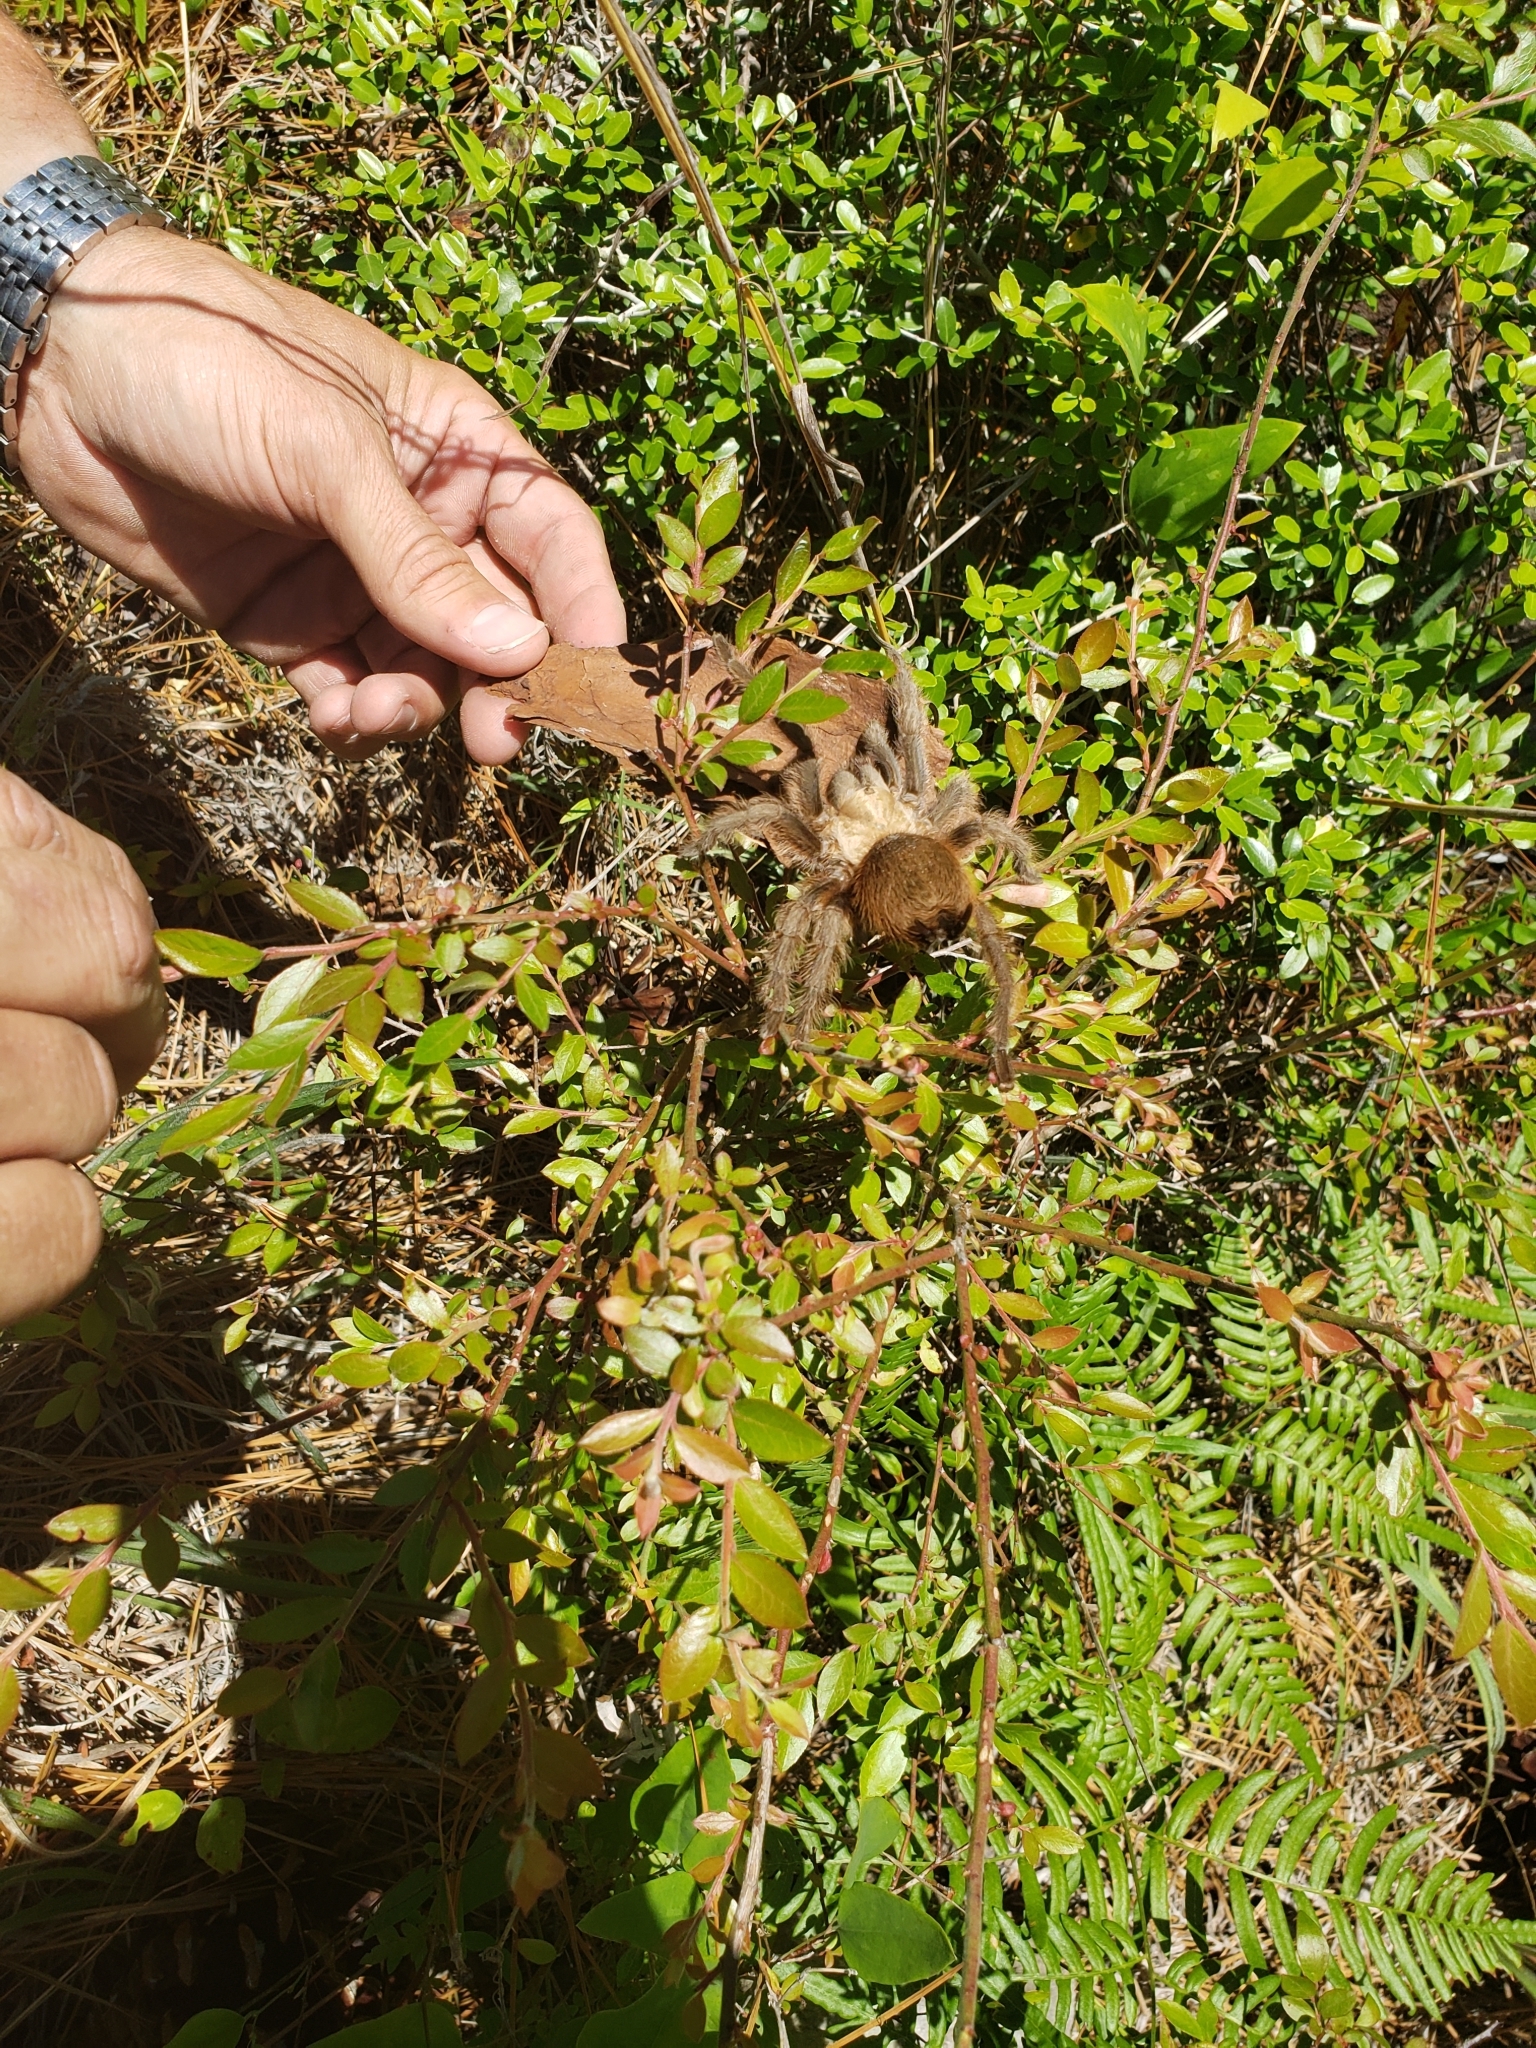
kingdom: Animalia
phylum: Arthropoda
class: Arachnida
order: Araneae
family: Theraphosidae
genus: Aphonopelma
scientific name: Aphonopelma hentzi
